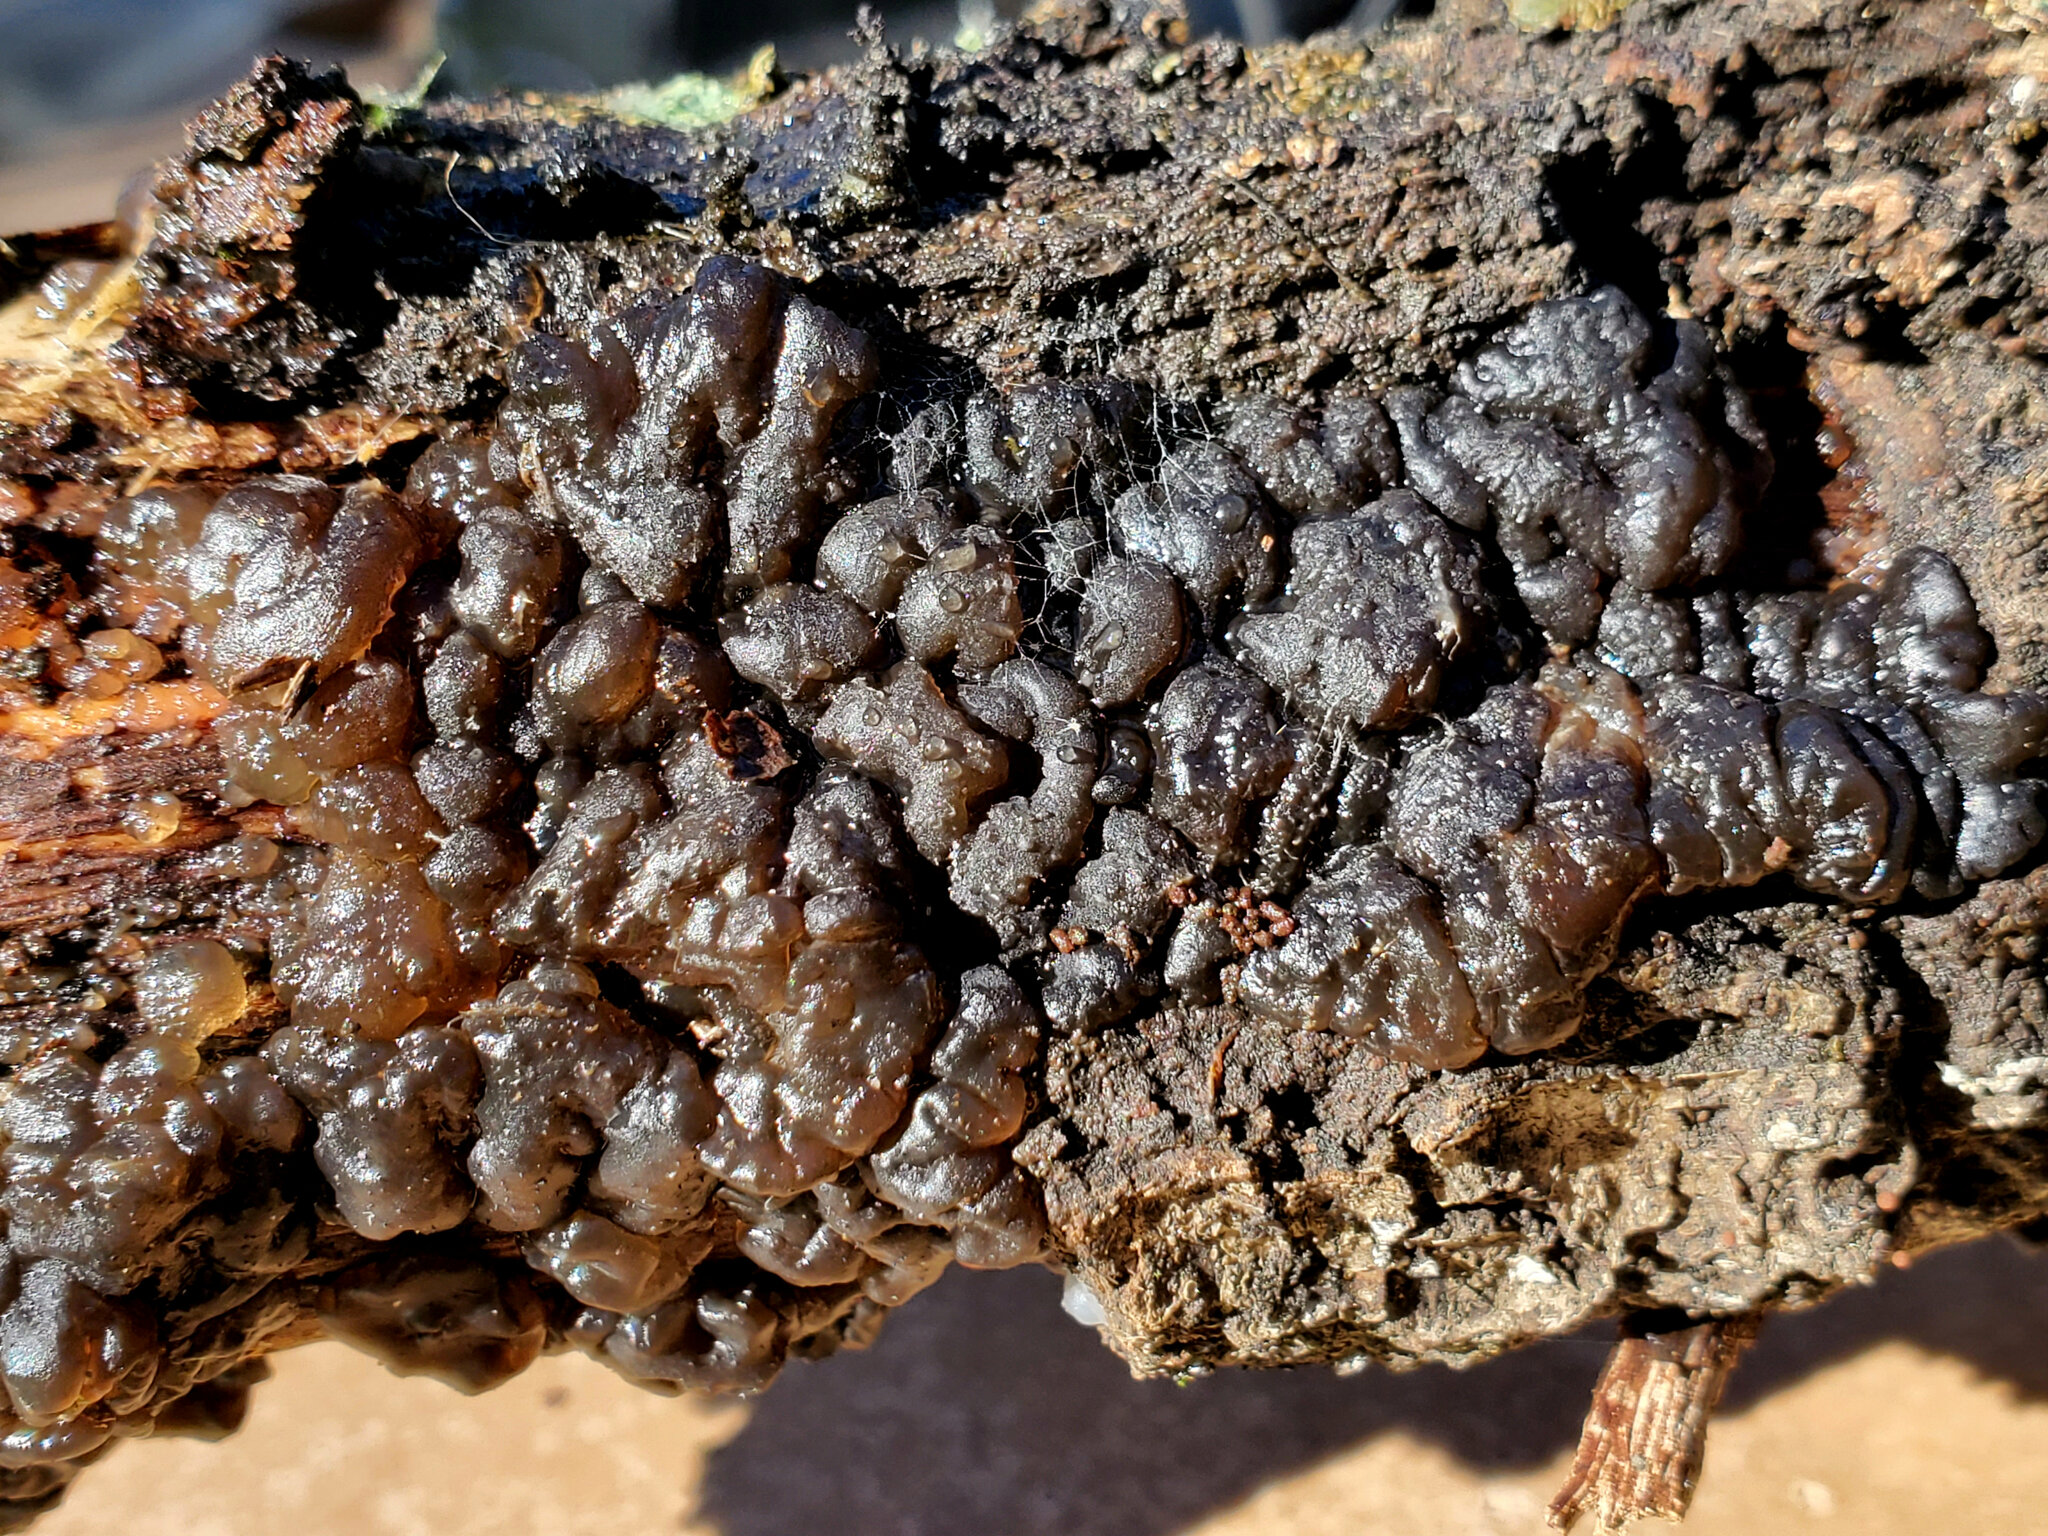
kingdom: Fungi
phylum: Basidiomycota
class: Agaricomycetes
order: Auriculariales
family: Auriculariaceae
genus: Exidia
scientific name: Exidia glandulosa
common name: Witches' butter
